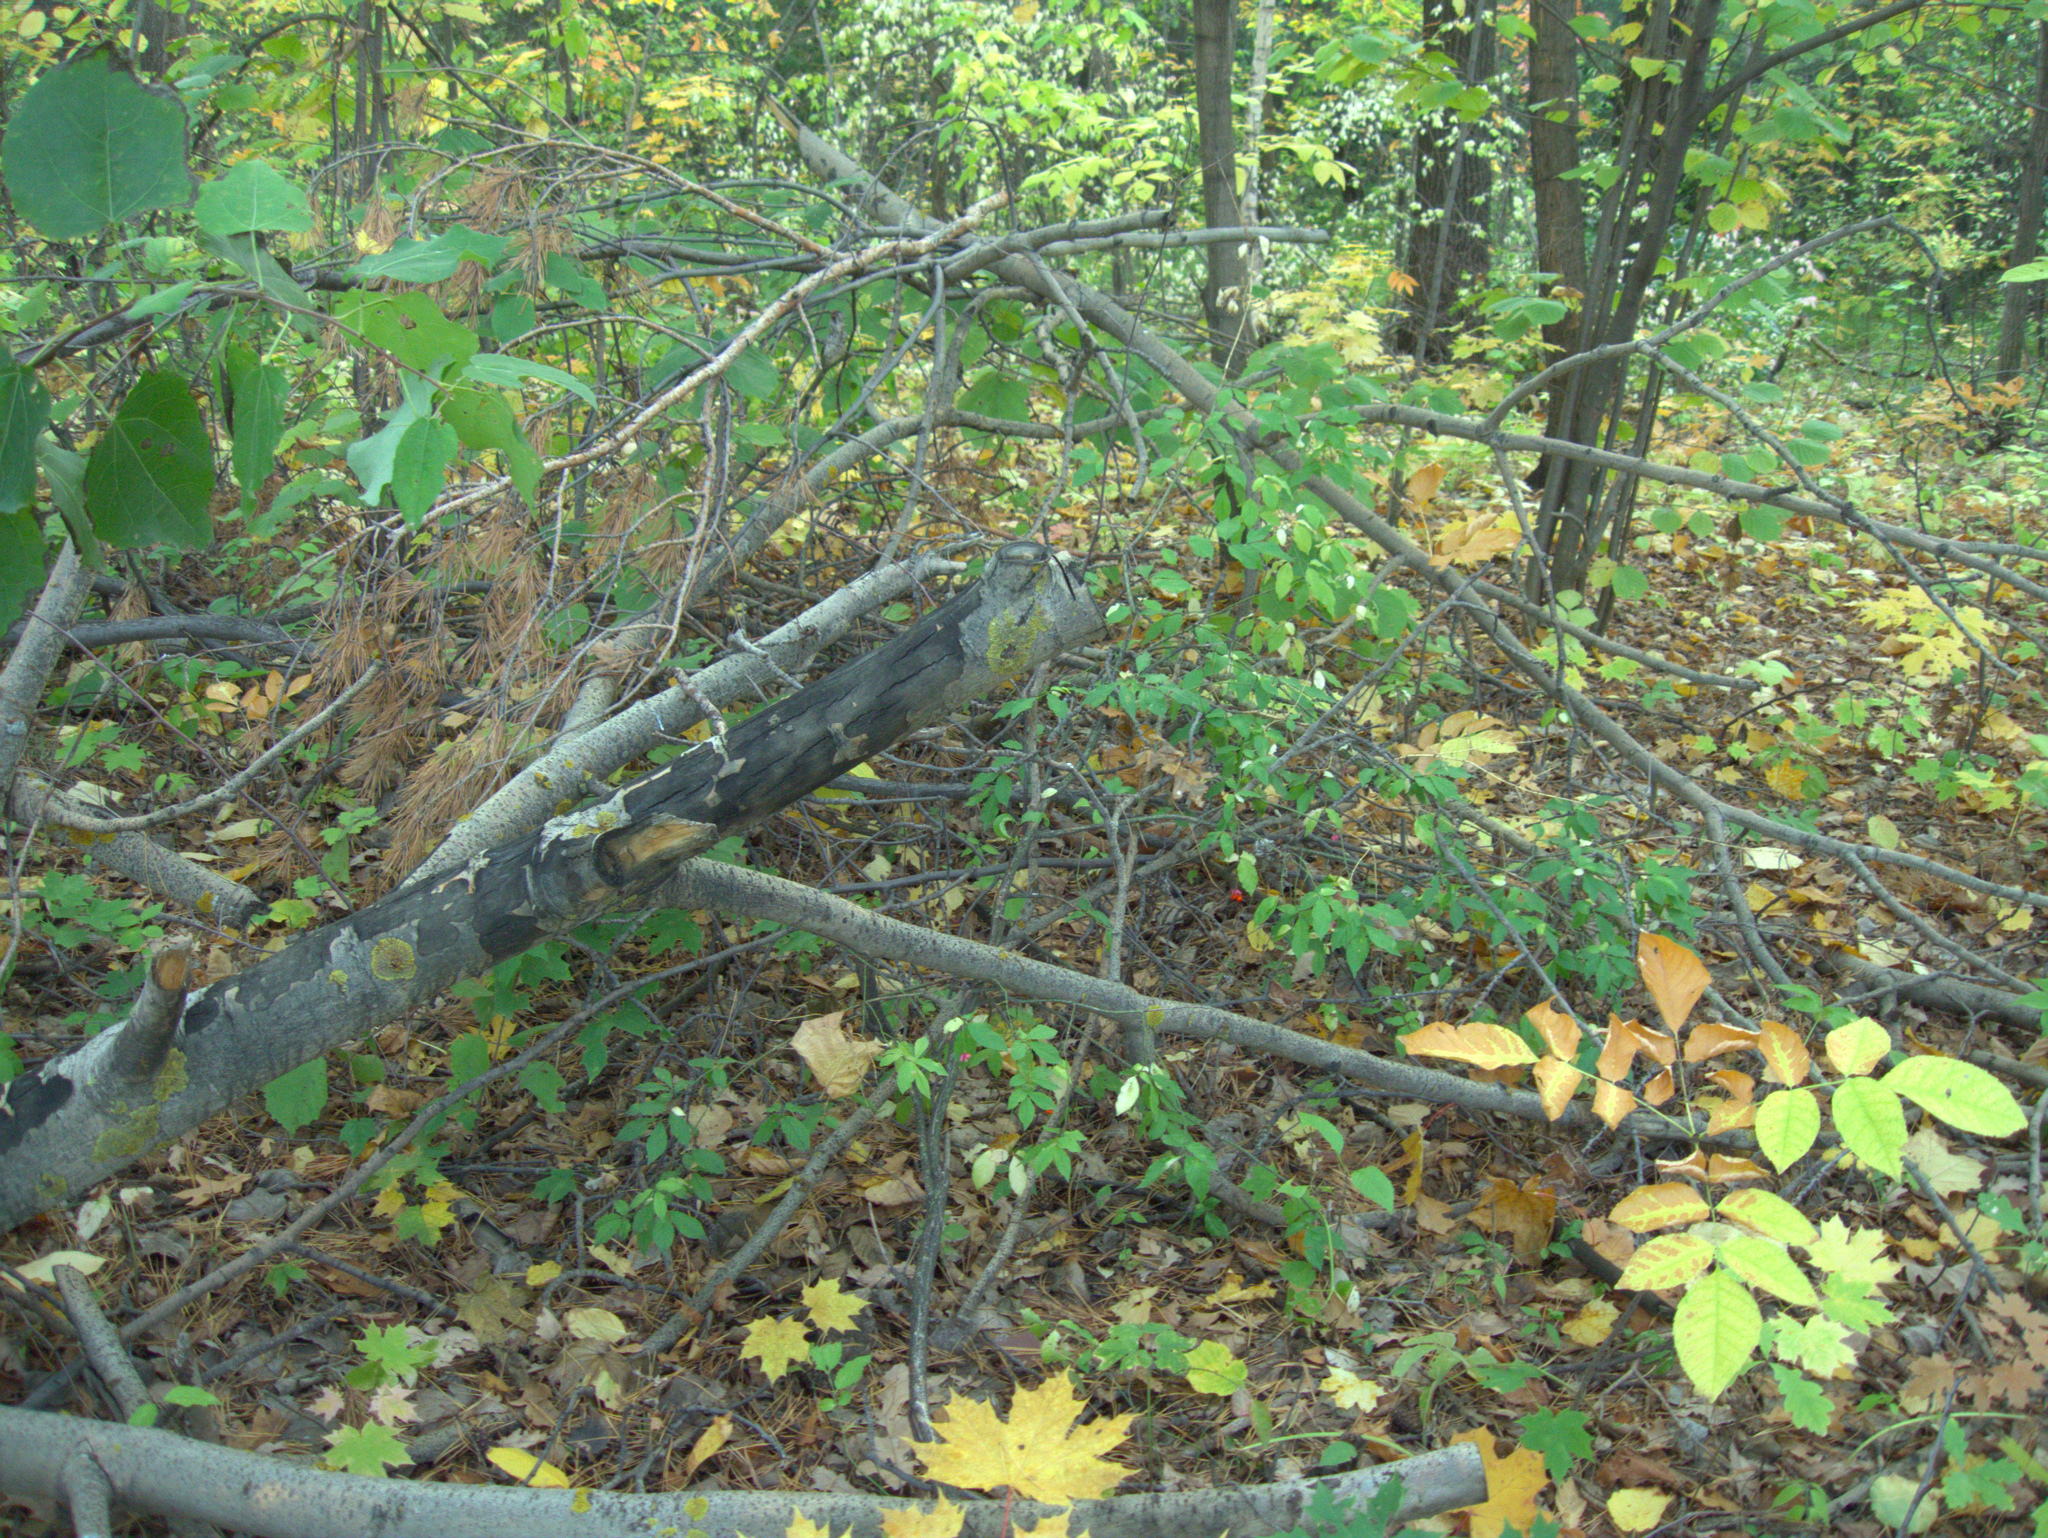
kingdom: Fungi
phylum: Ascomycota
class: Lecanoromycetes
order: Teloschistales
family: Teloschistaceae
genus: Xanthoria
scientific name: Xanthoria parietina
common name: Common orange lichen
